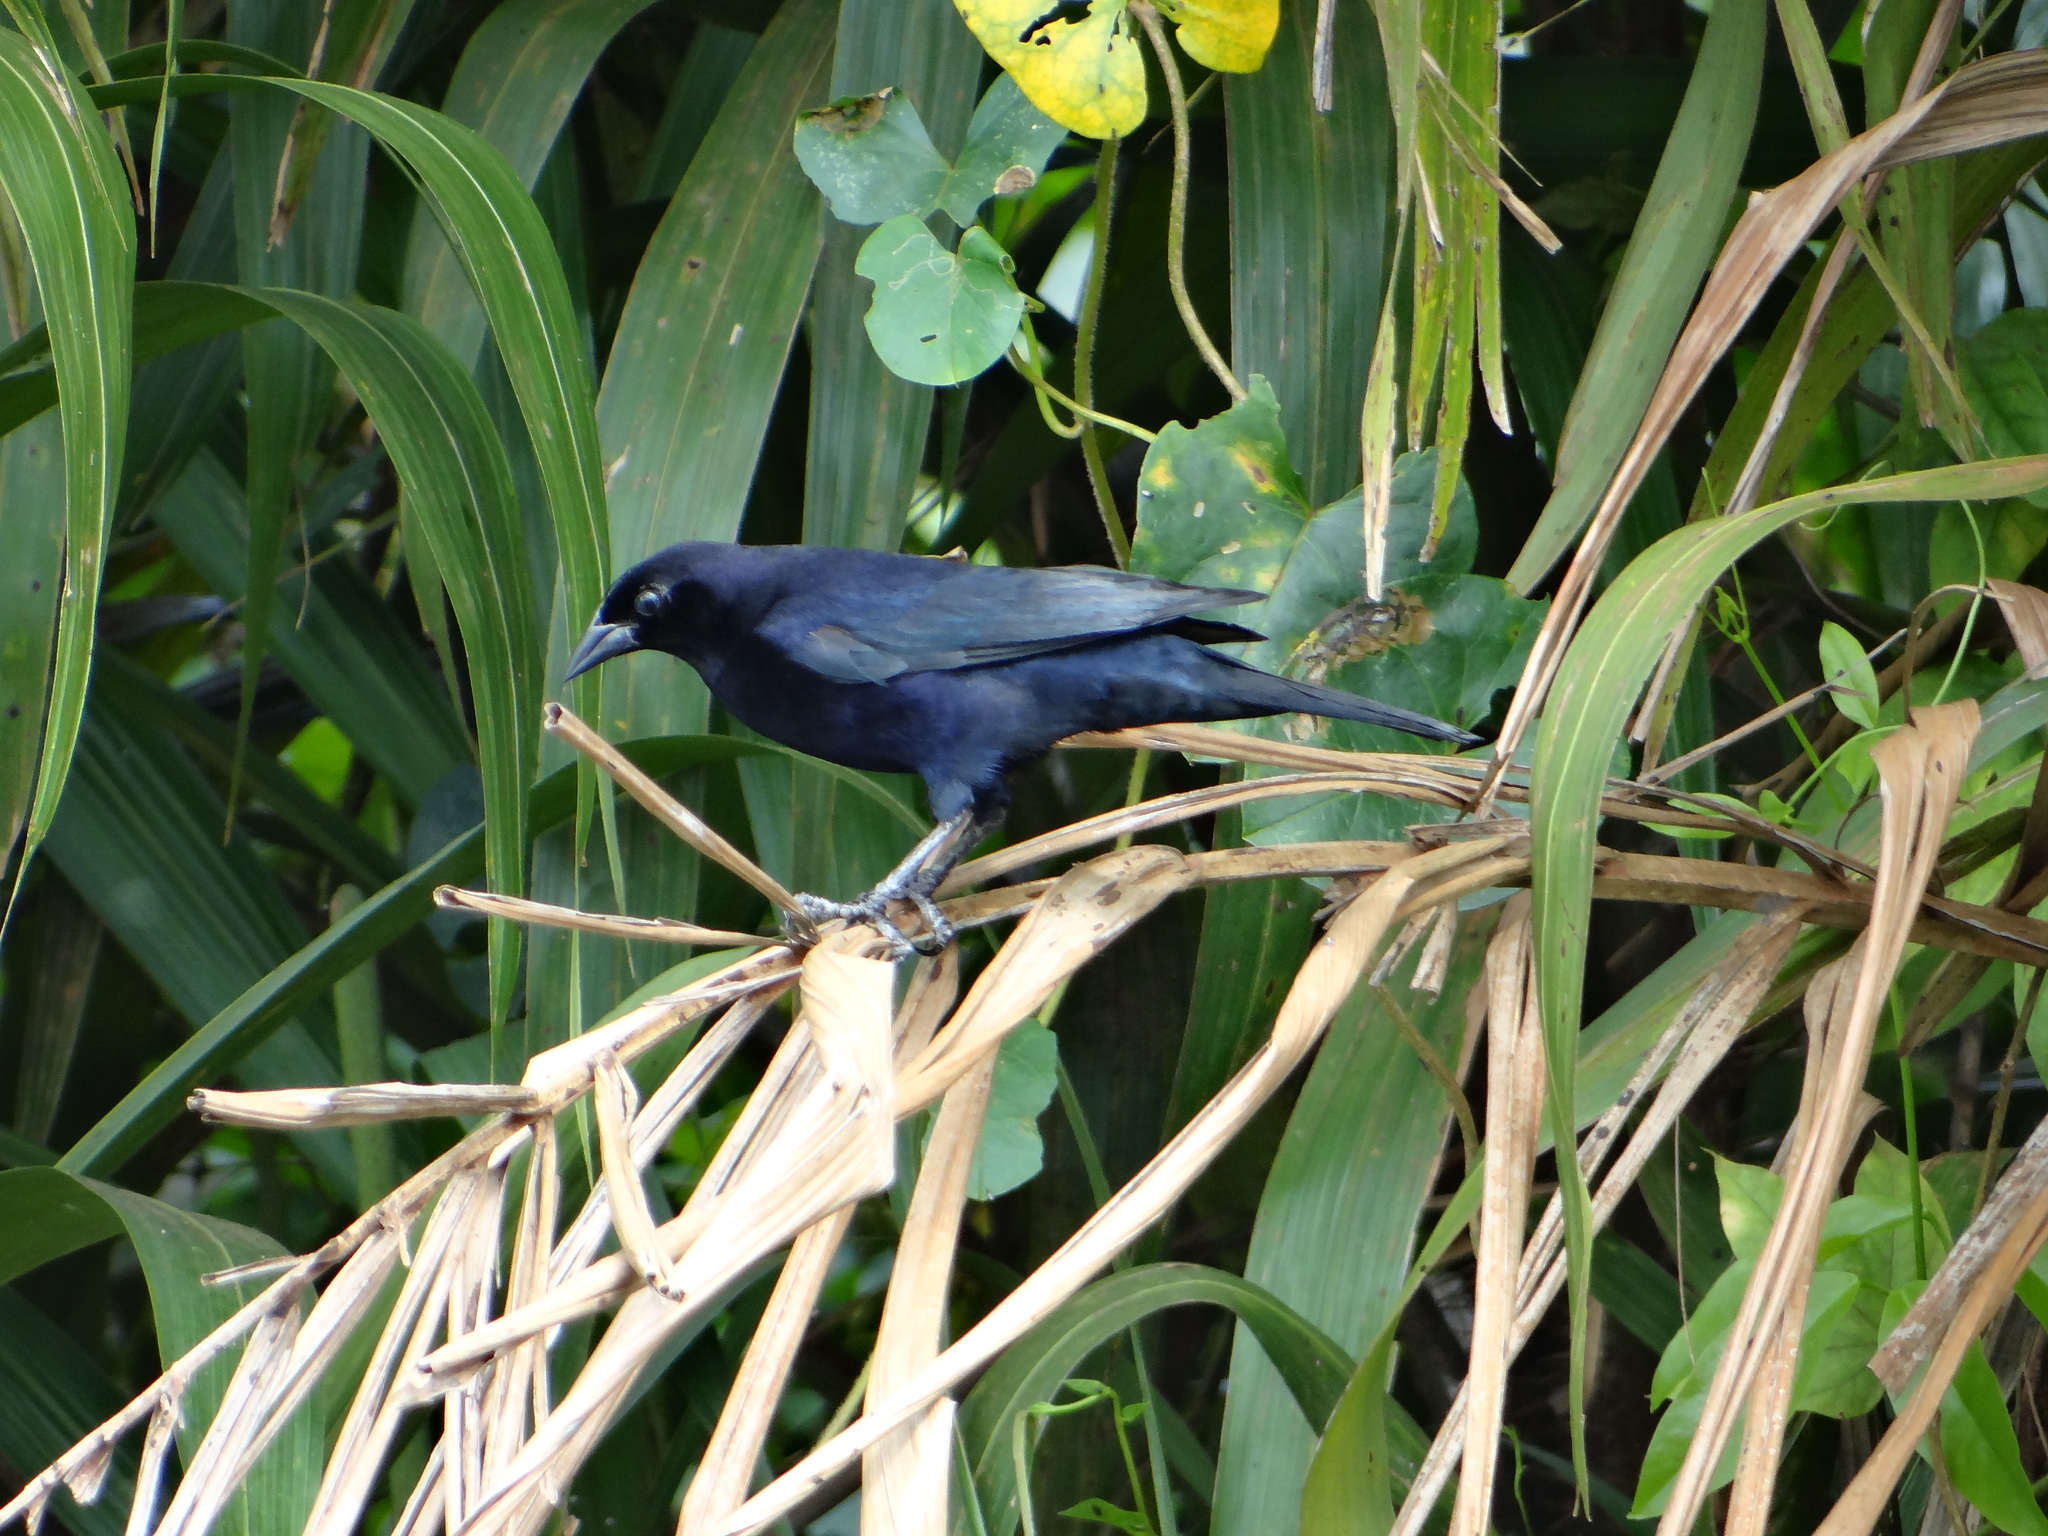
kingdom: Animalia
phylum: Chordata
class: Aves
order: Passeriformes
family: Icteridae
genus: Molothrus
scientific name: Molothrus bonariensis
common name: Shiny cowbird
